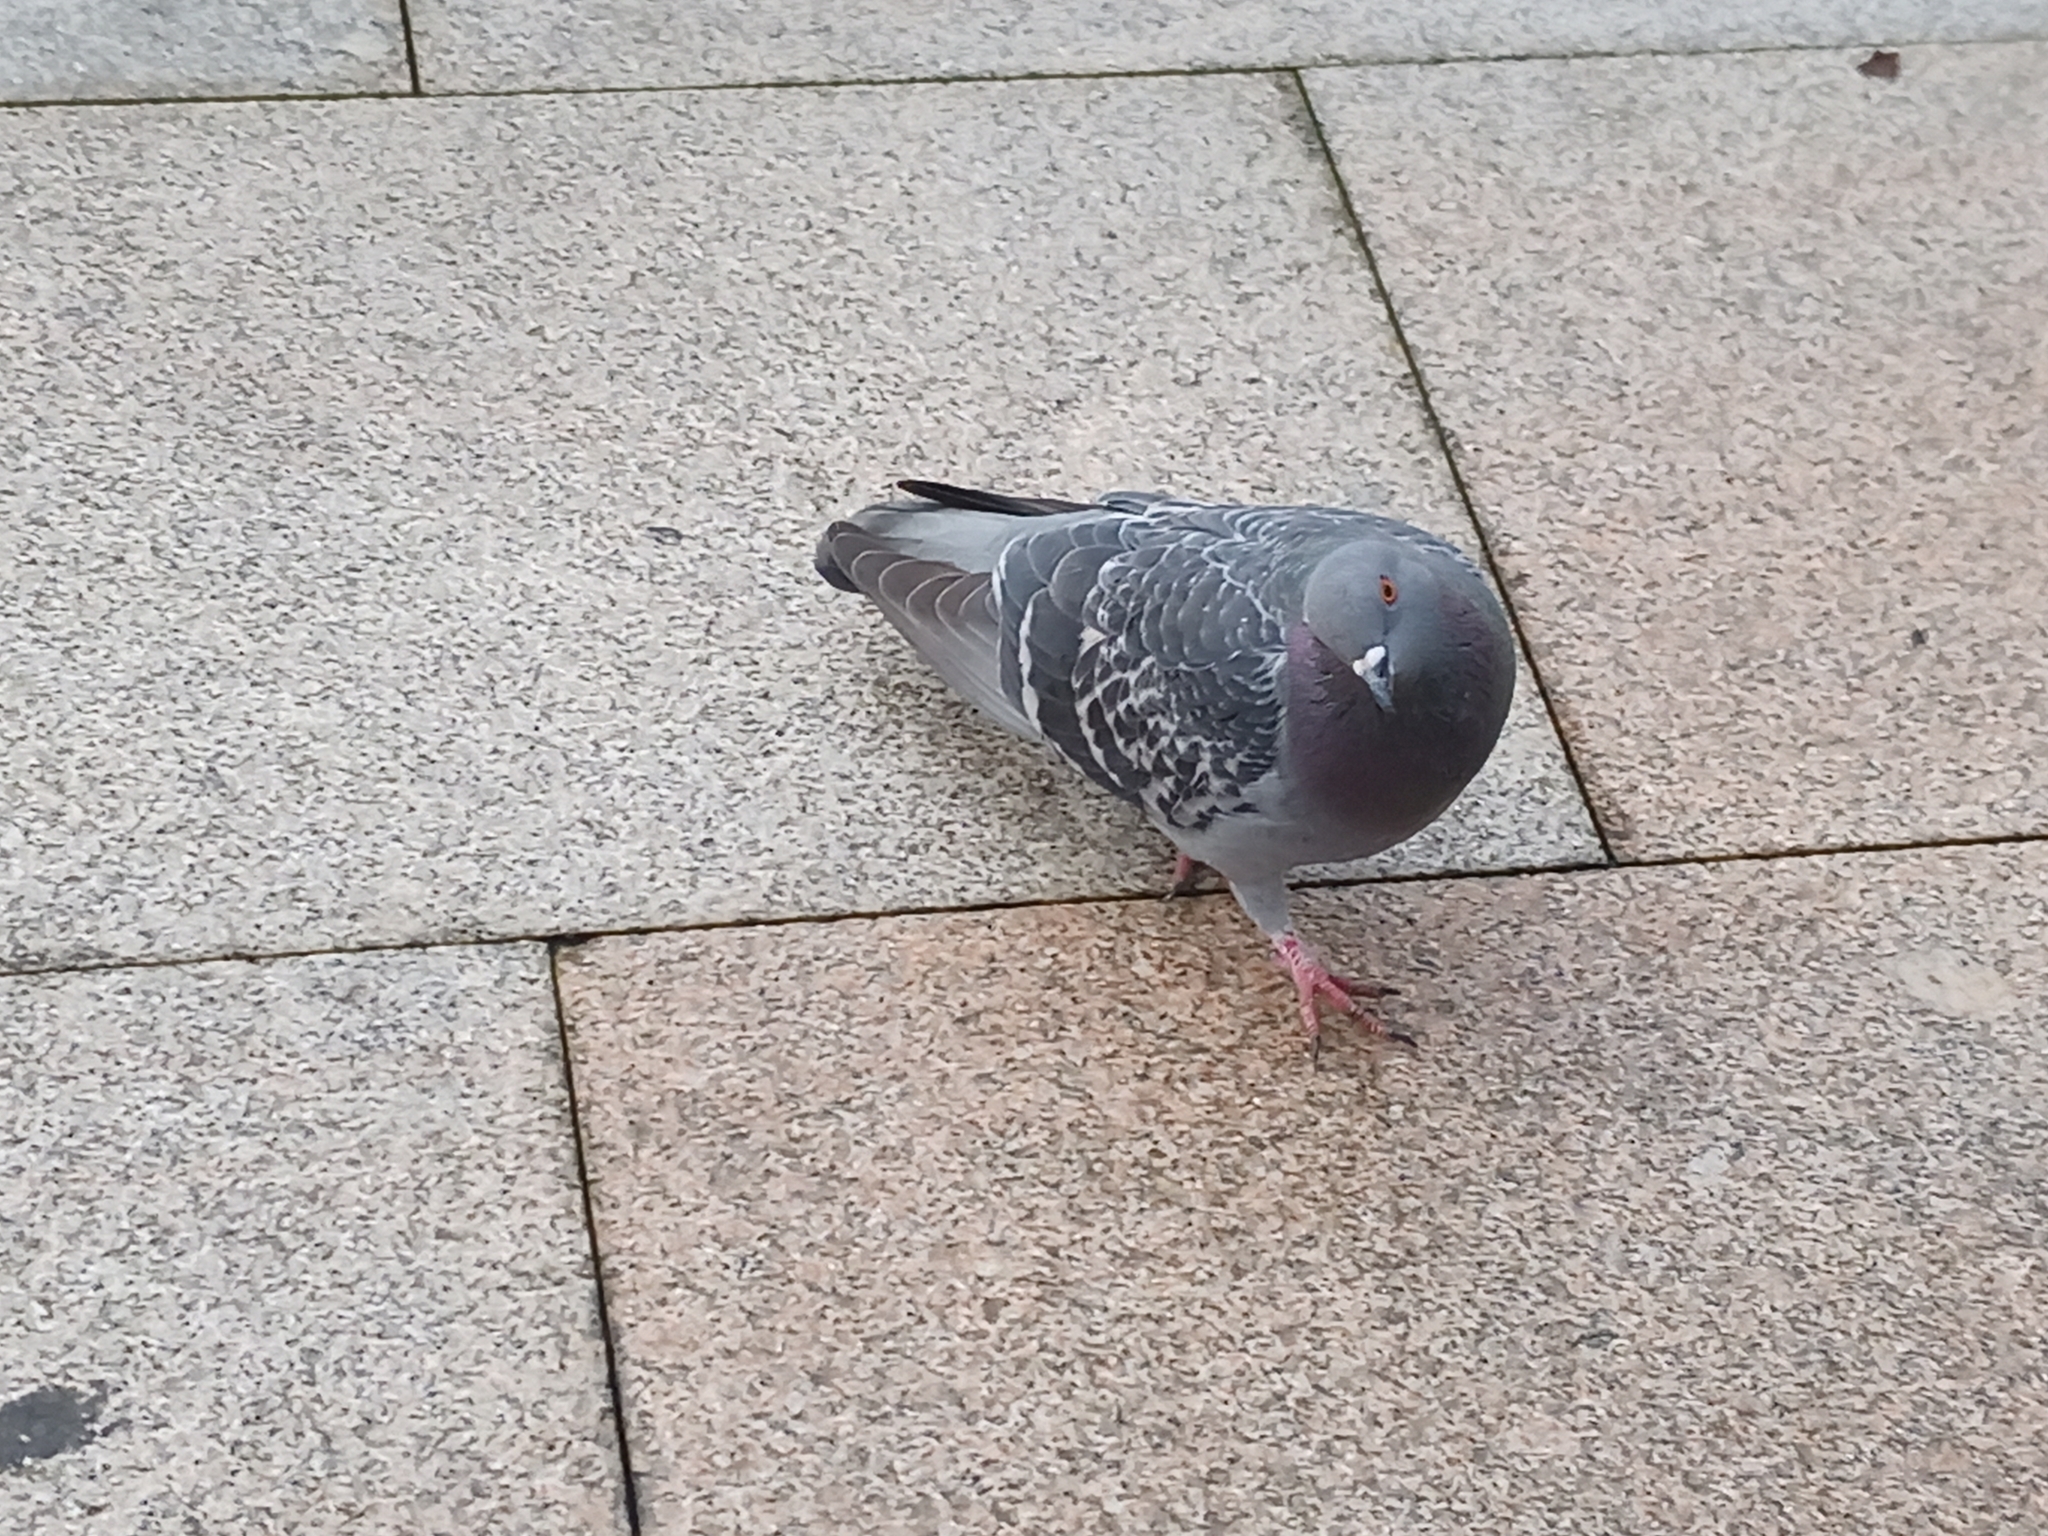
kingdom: Animalia
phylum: Chordata
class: Aves
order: Columbiformes
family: Columbidae
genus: Columba
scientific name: Columba livia
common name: Rock pigeon
